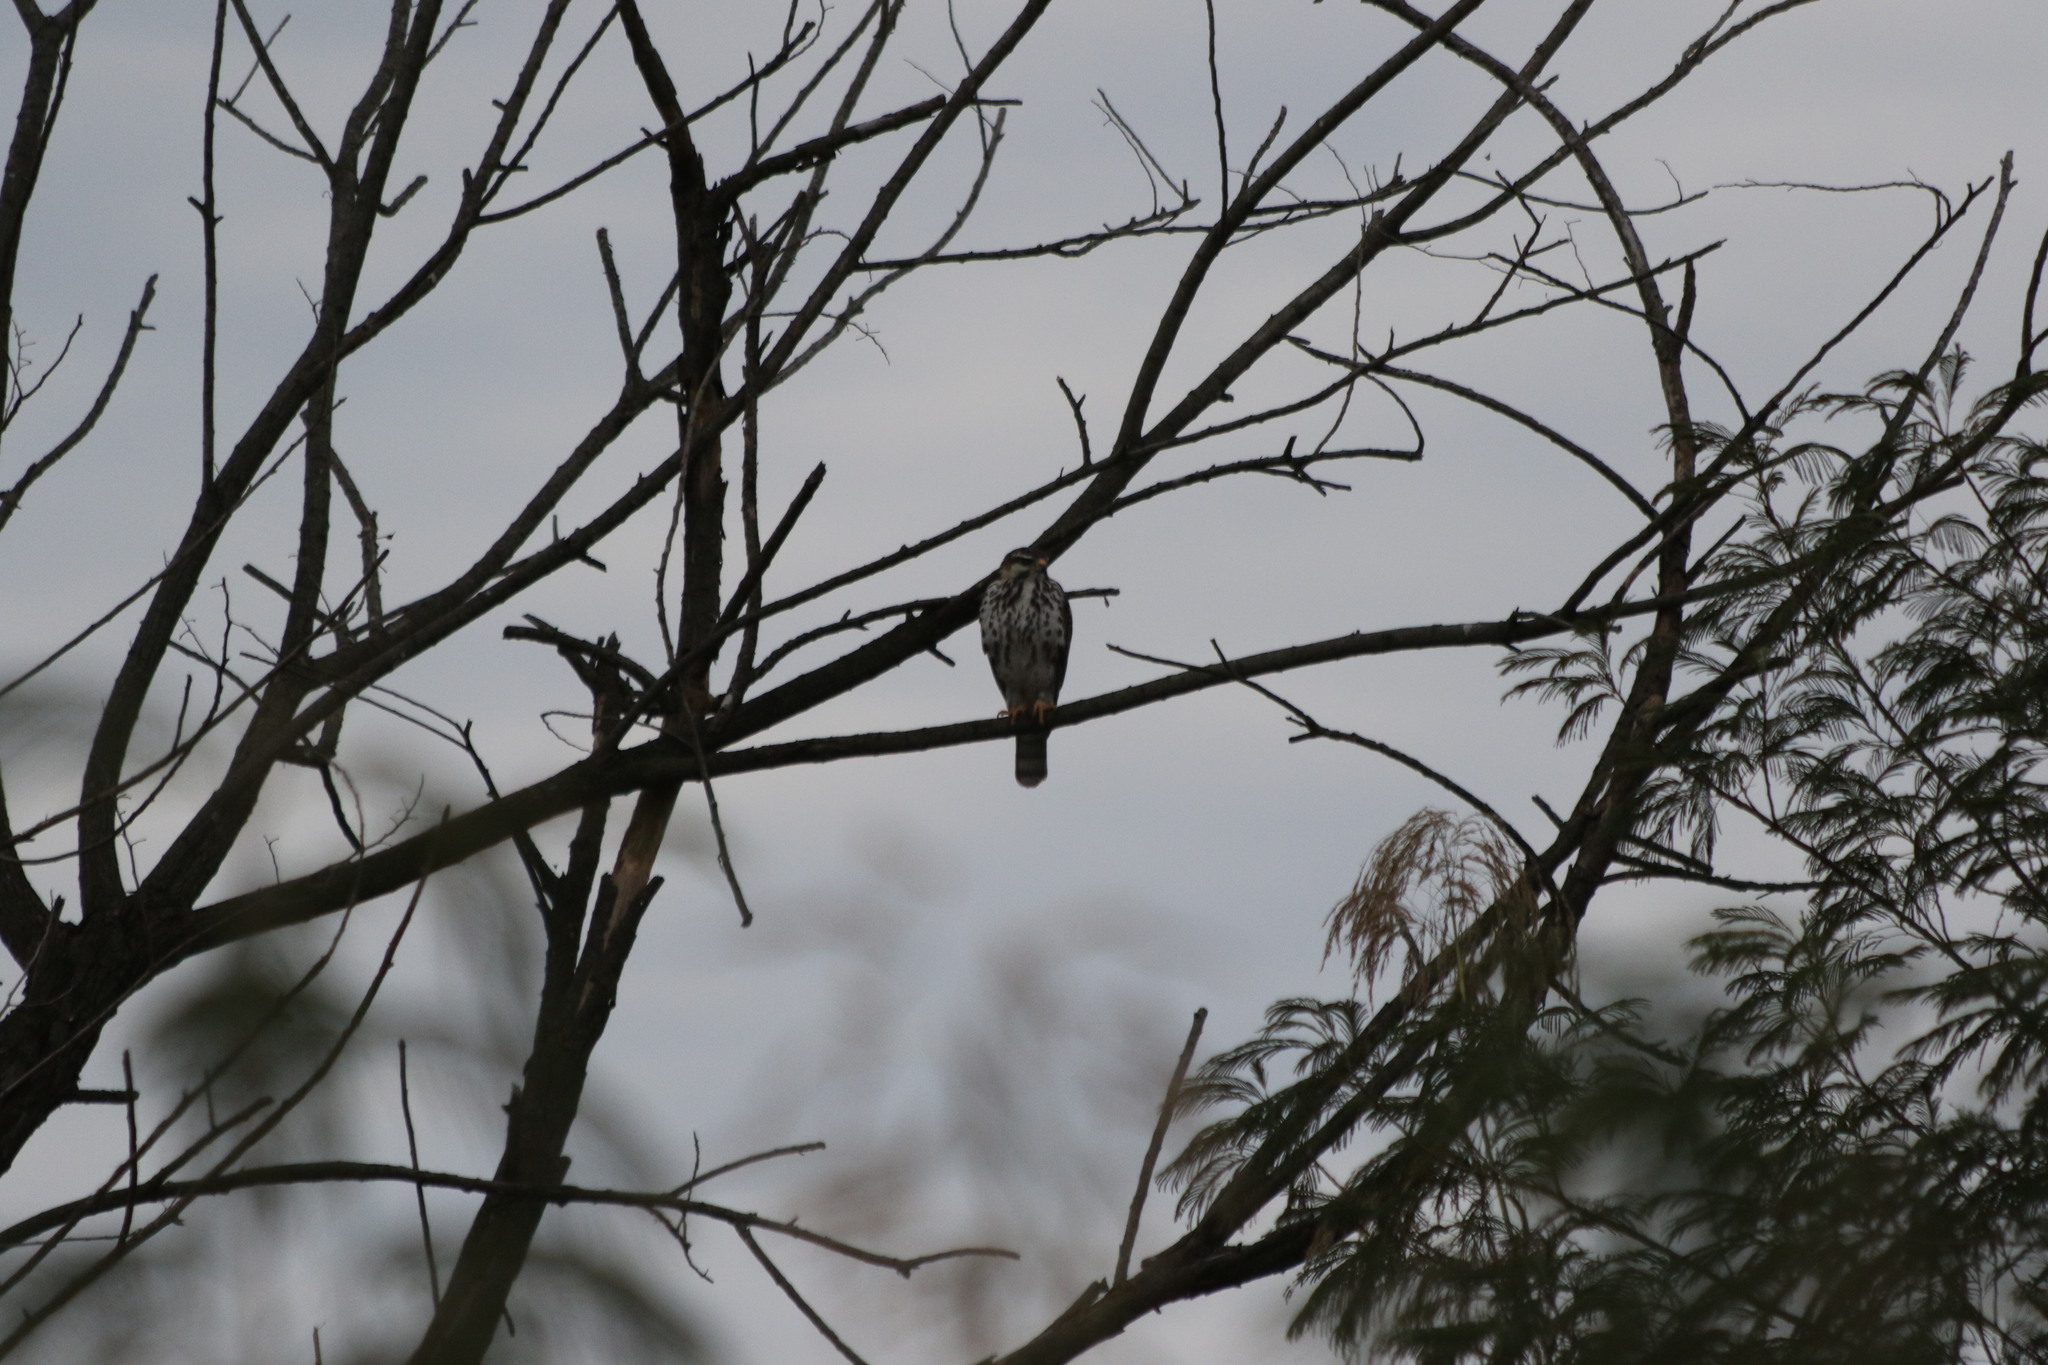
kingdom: Animalia
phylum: Chordata
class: Aves
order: Accipitriformes
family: Accipitridae
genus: Buteo
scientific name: Buteo nitidus
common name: Grey-lined hawk
